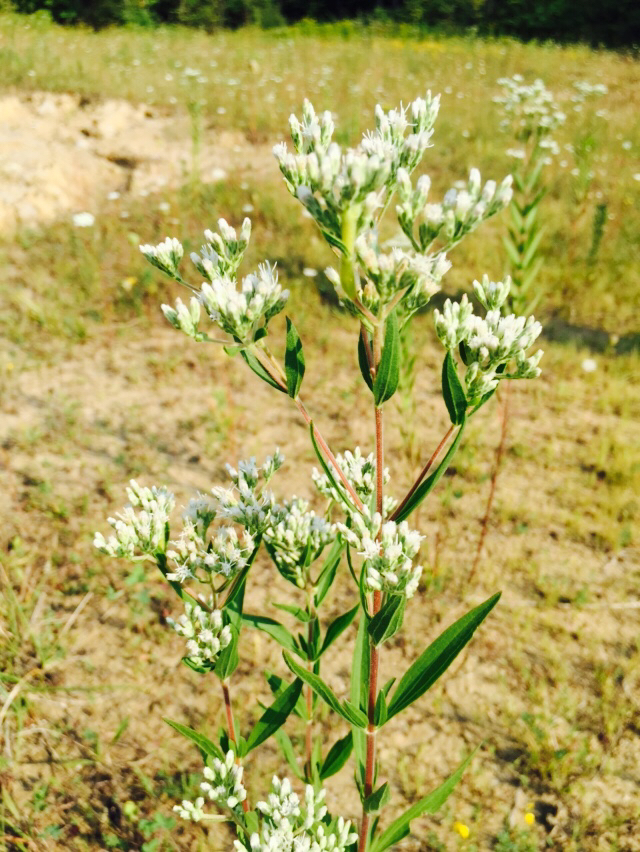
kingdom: Plantae
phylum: Tracheophyta
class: Magnoliopsida
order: Asterales
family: Asteraceae
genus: Eupatorium
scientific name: Eupatorium altissimum
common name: Tall thoroughwort
